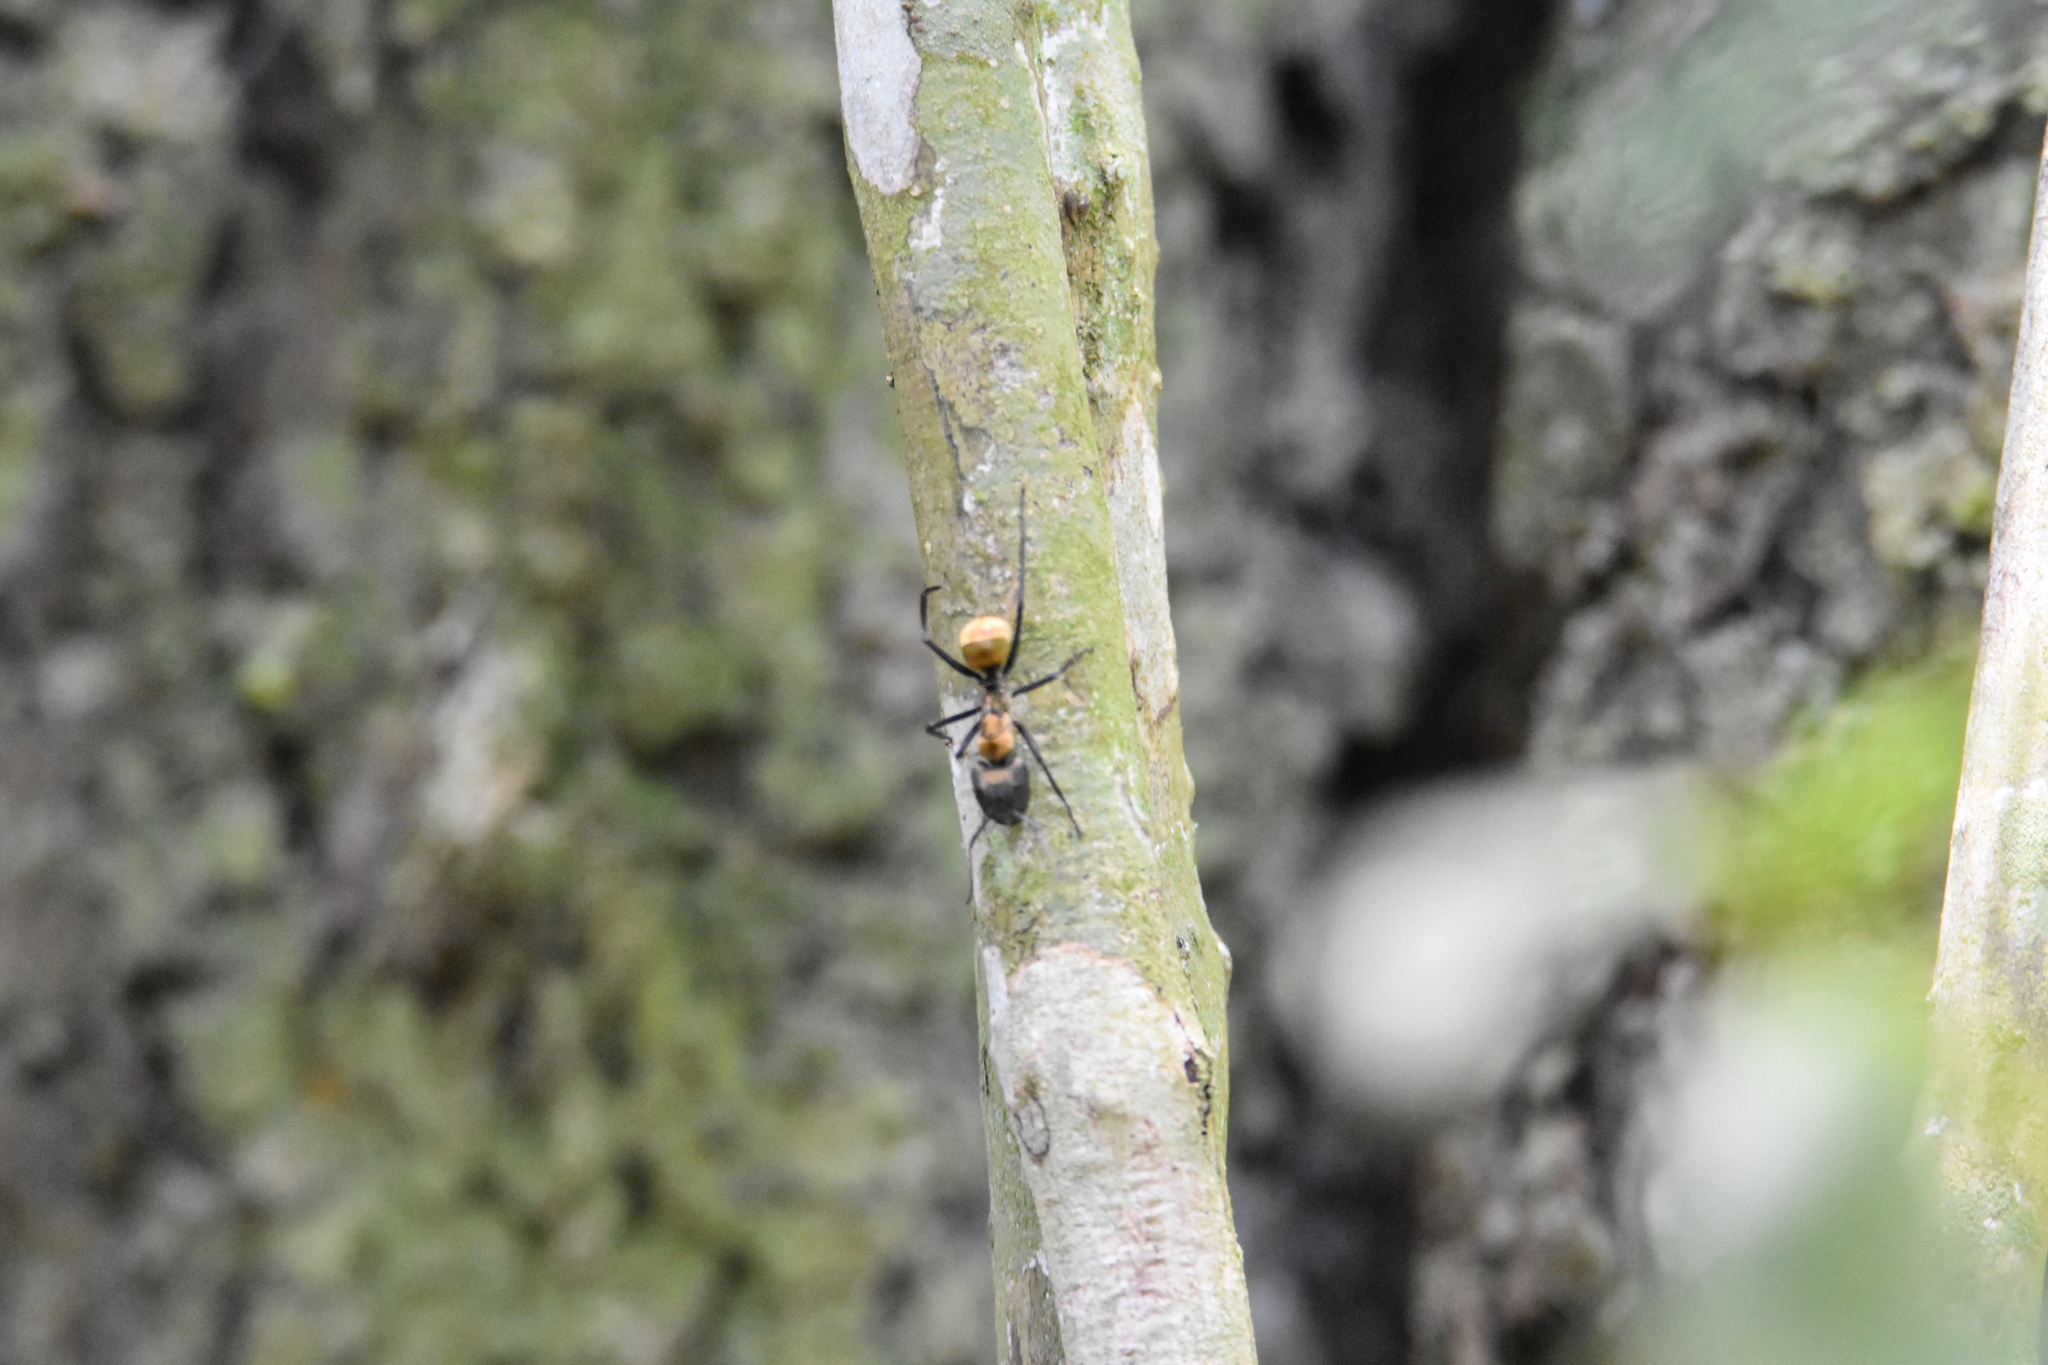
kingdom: Animalia
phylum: Arthropoda
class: Insecta
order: Hymenoptera
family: Formicidae
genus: Camponotus
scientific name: Camponotus sericeiventris
